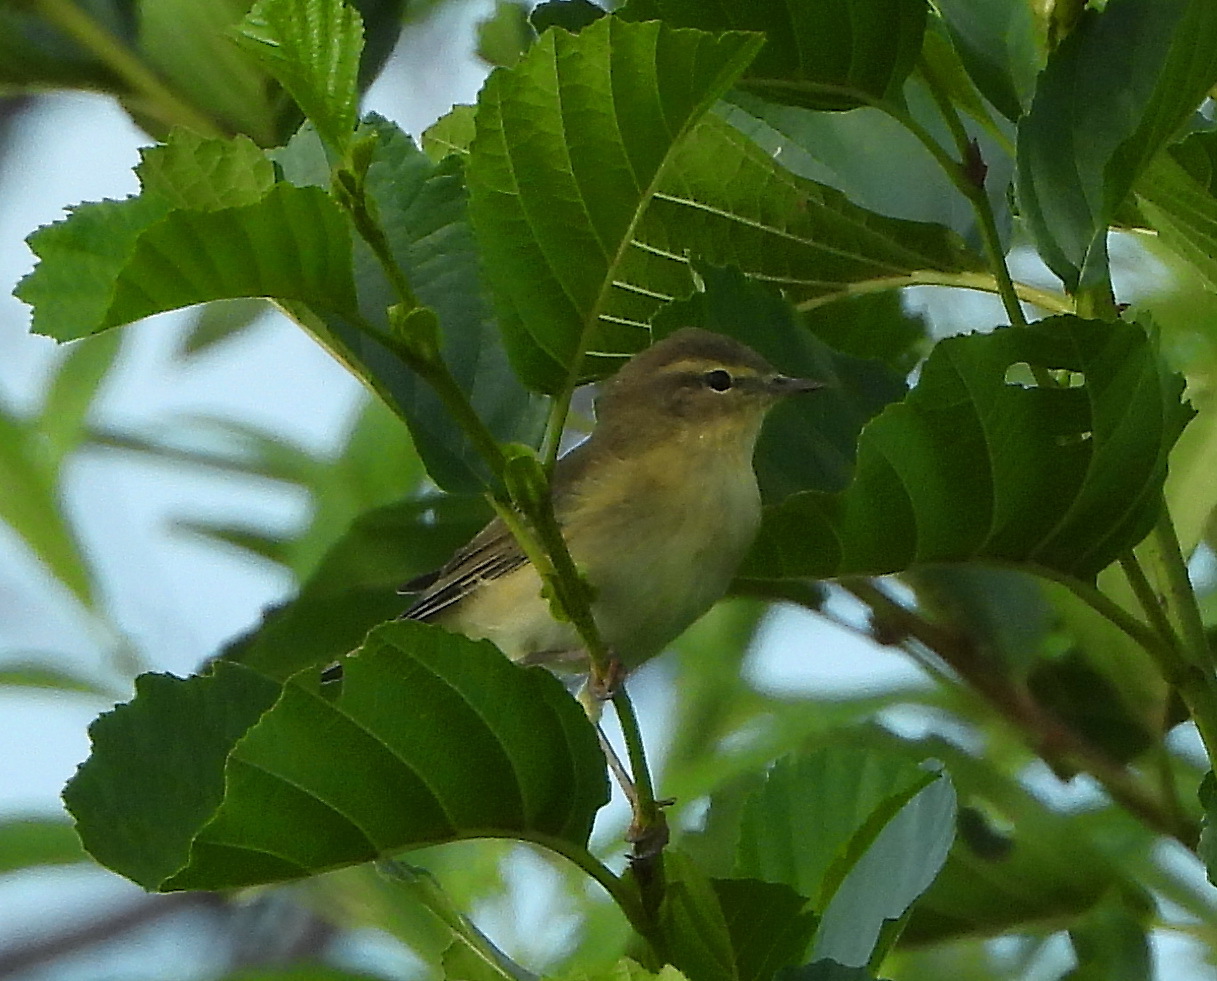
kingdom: Animalia
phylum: Chordata
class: Aves
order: Passeriformes
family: Phylloscopidae
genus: Phylloscopus
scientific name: Phylloscopus trochilus
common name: Willow warbler
